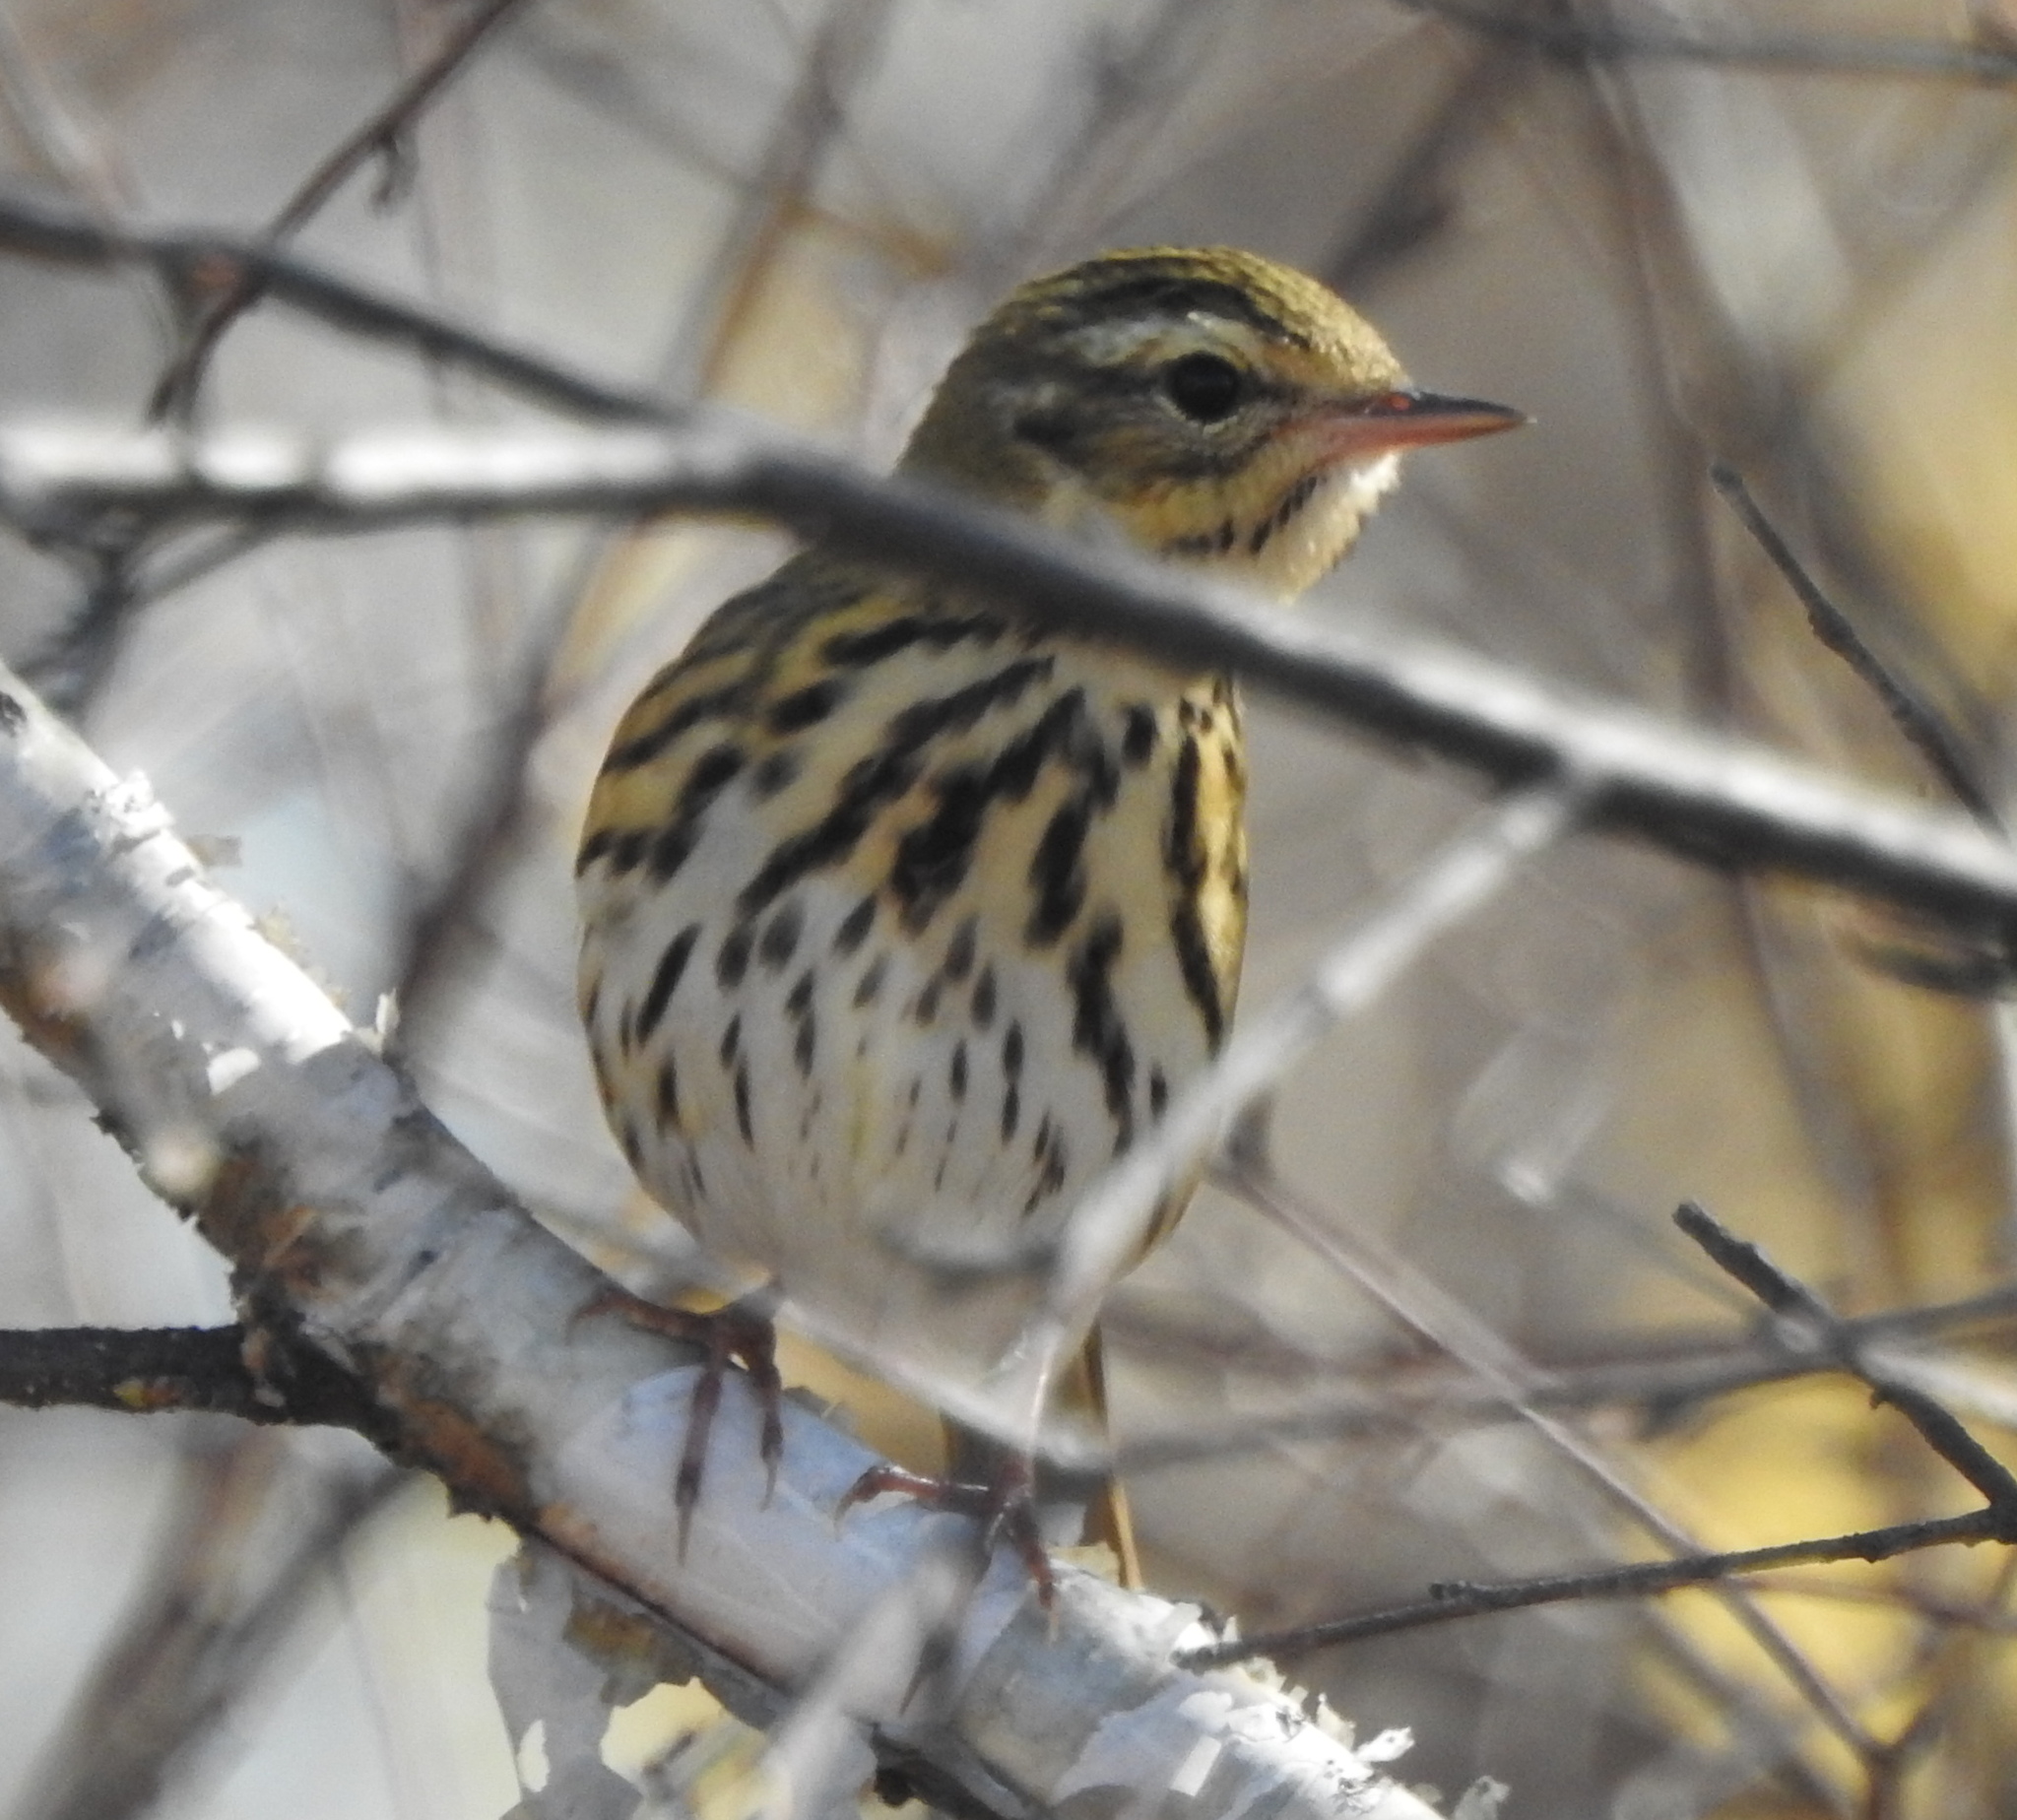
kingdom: Animalia
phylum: Chordata
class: Aves
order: Passeriformes
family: Motacillidae
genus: Anthus
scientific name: Anthus hodgsoni
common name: Olive-backed pipit
